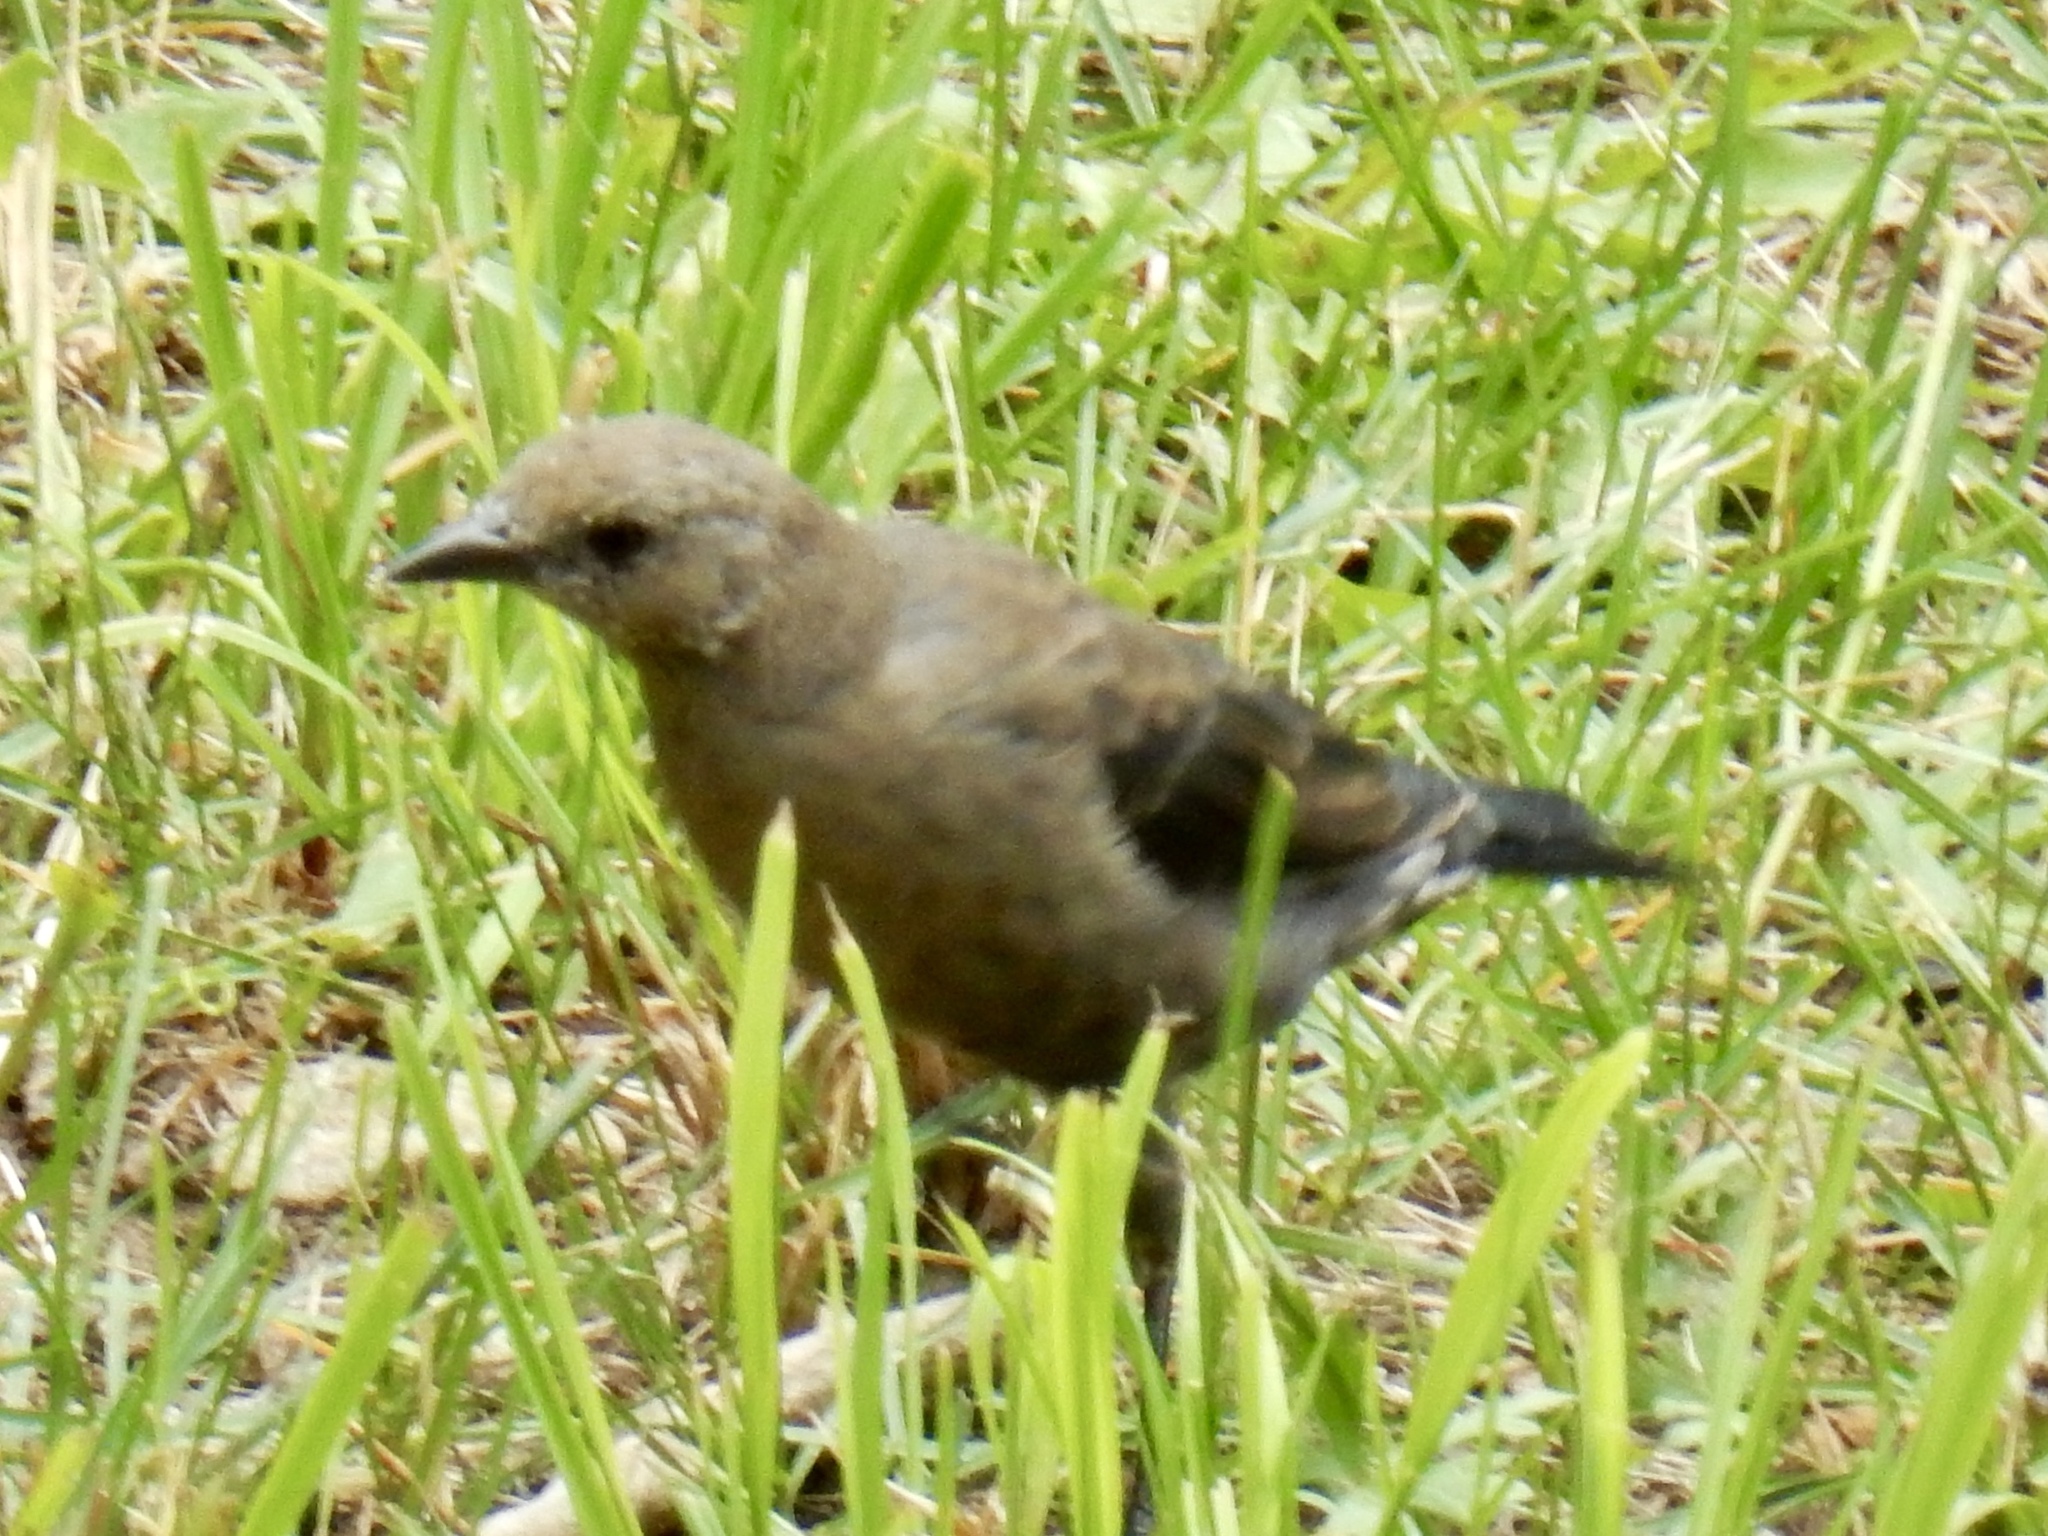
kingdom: Animalia
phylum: Chordata
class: Aves
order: Passeriformes
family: Icteridae
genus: Euphagus
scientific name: Euphagus cyanocephalus
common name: Brewer's blackbird
